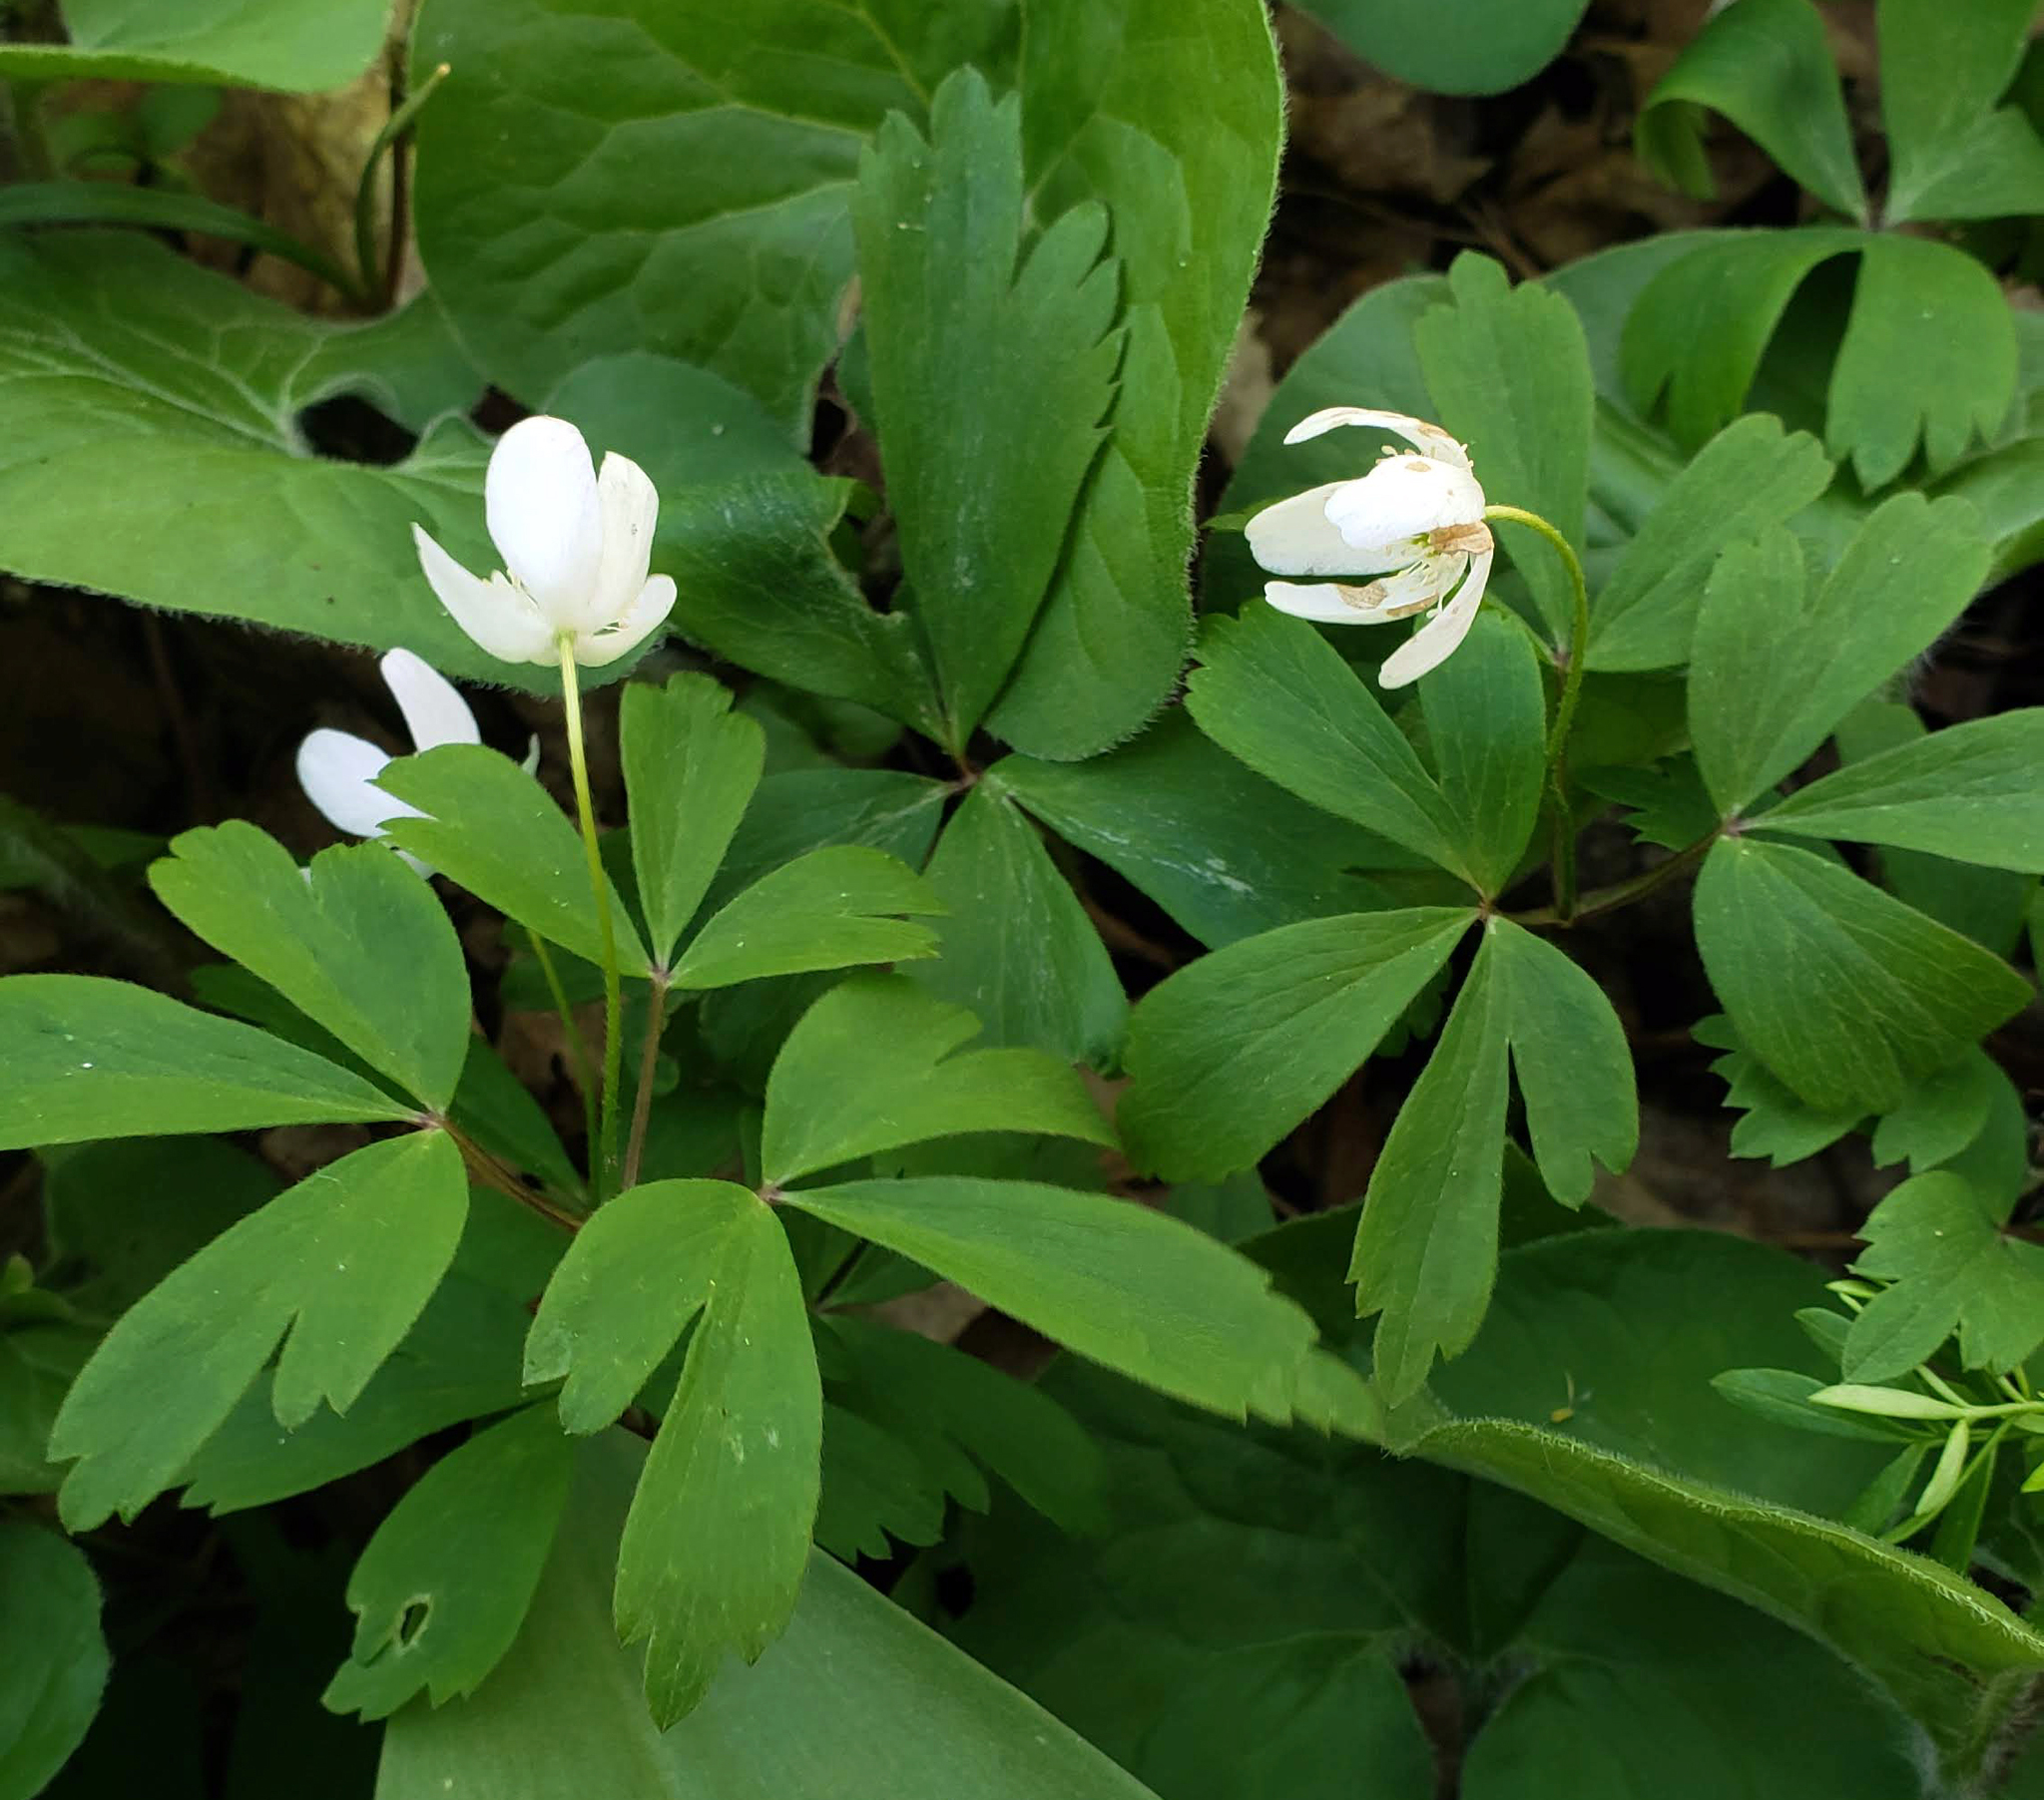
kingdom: Plantae
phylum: Tracheophyta
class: Magnoliopsida
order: Ranunculales
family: Ranunculaceae
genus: Anemone
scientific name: Anemone quinquefolia
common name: Wood anemone
